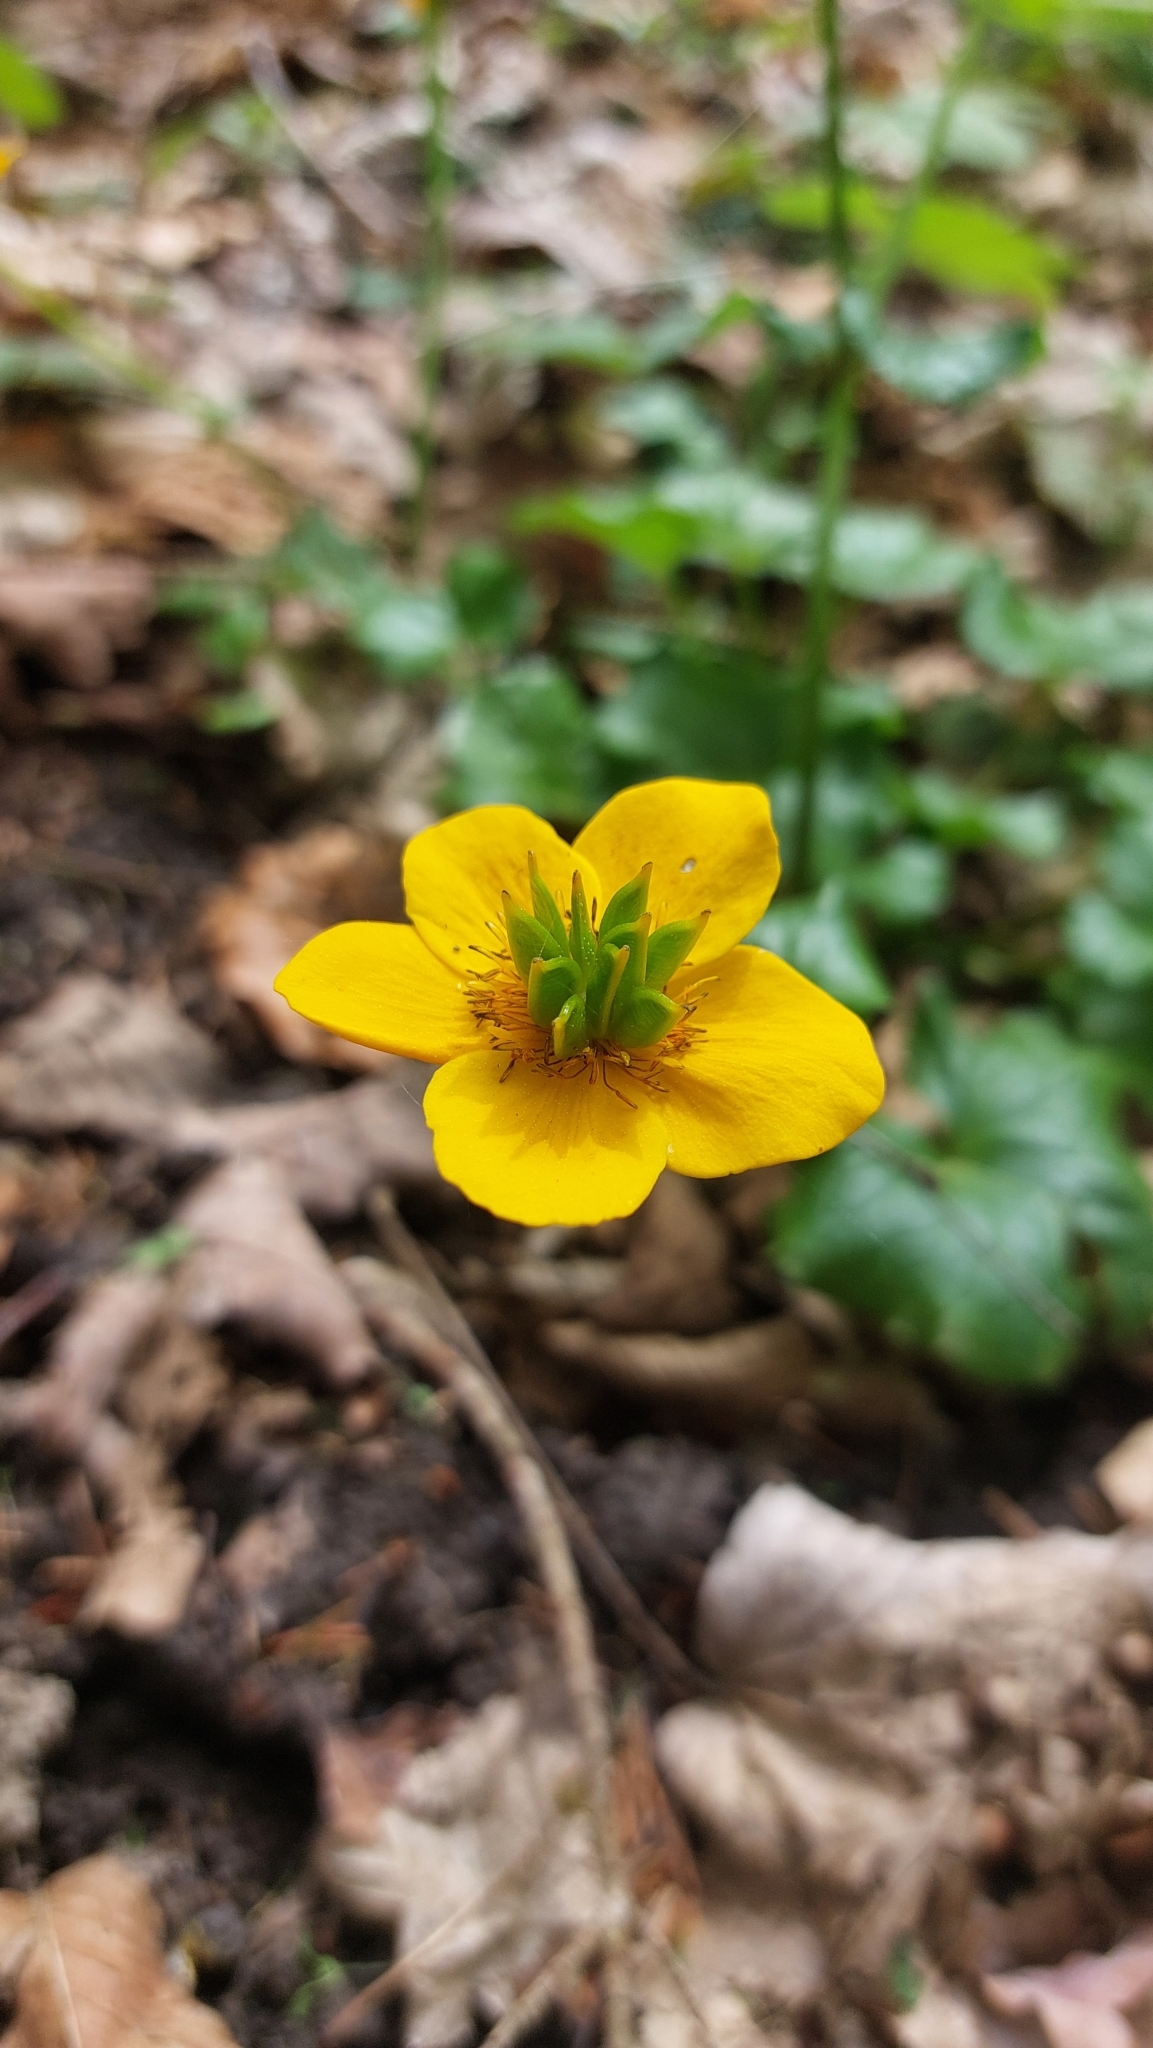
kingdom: Plantae
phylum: Tracheophyta
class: Magnoliopsida
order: Ranunculales
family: Ranunculaceae
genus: Caltha
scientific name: Caltha palustris
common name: Marsh marigold
